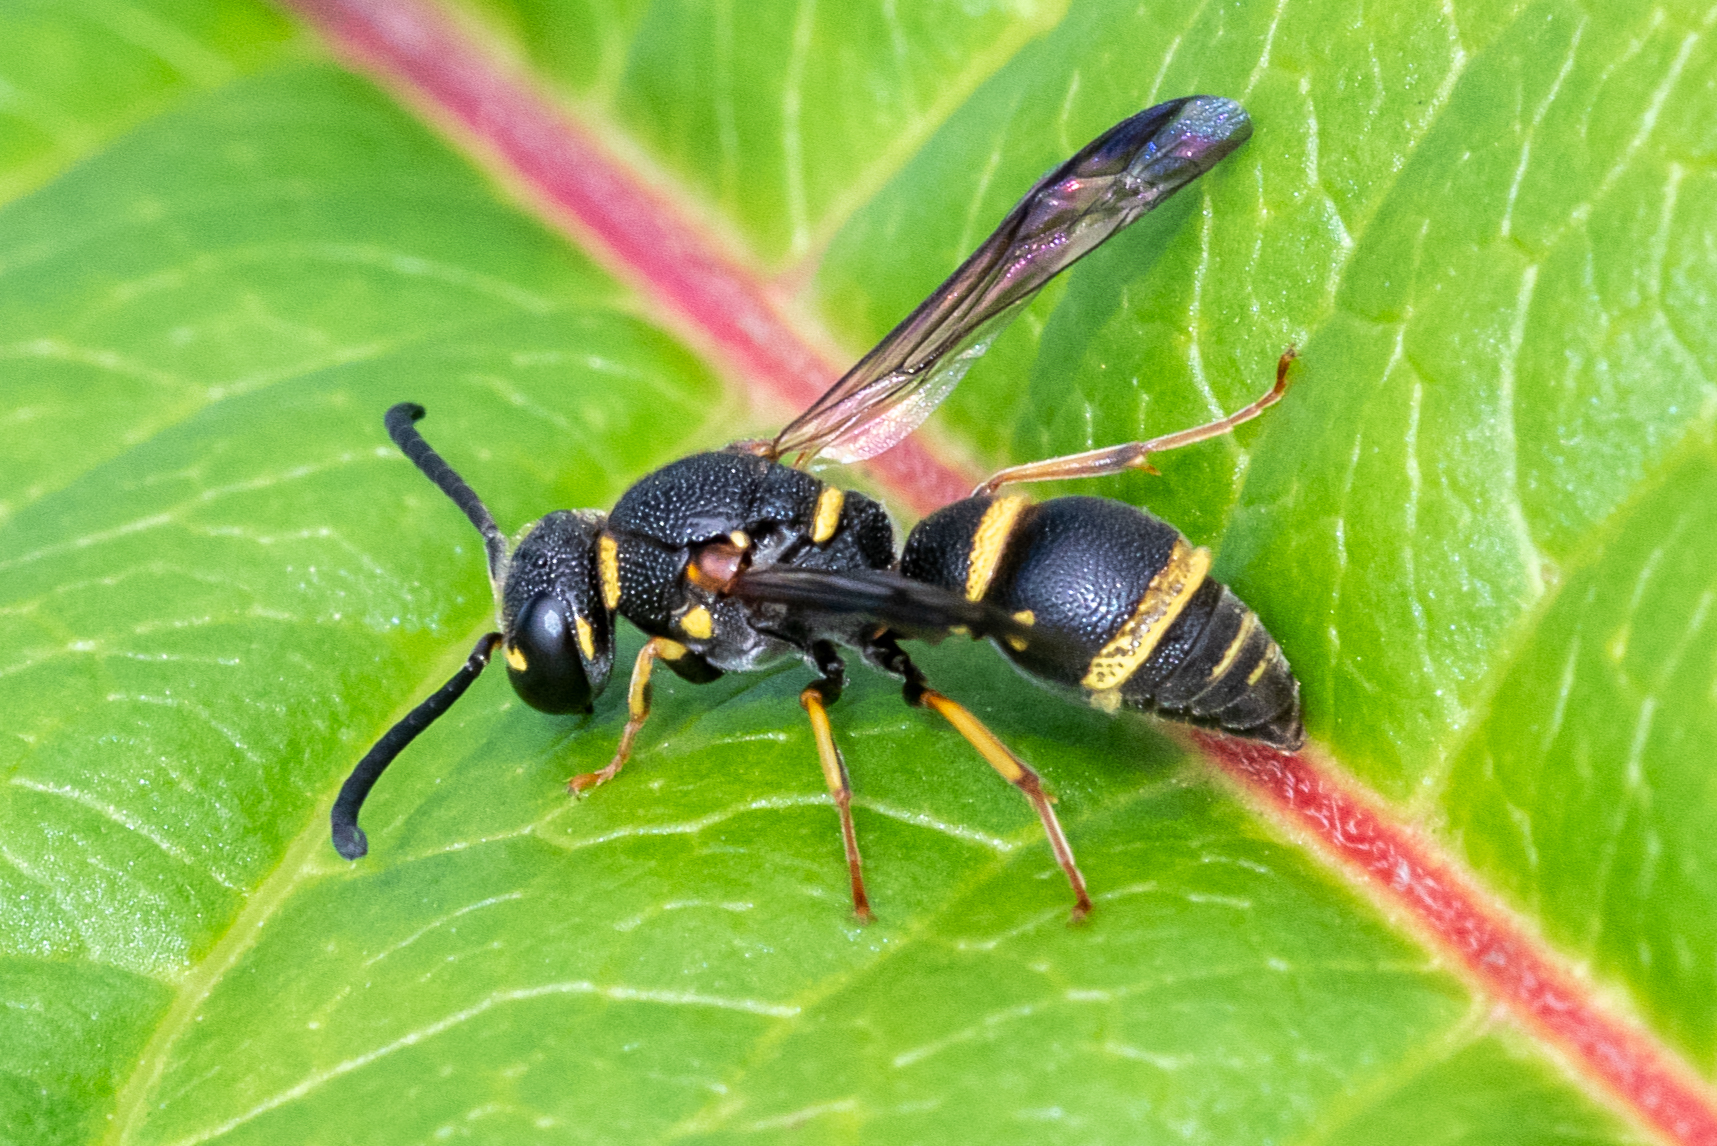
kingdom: Animalia
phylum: Arthropoda
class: Insecta
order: Hymenoptera
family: Eumenidae
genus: Parancistrocerus
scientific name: Parancistrocerus
